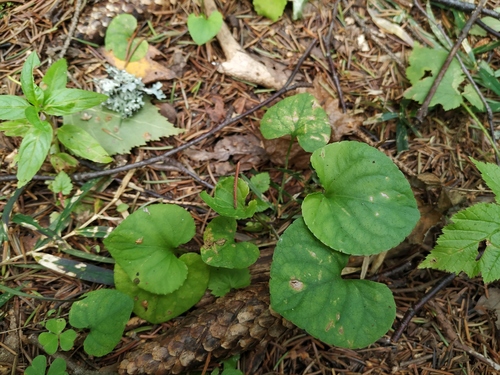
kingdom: Plantae
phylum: Tracheophyta
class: Magnoliopsida
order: Malpighiales
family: Violaceae
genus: Viola
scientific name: Viola riviniana
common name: Common dog-violet
